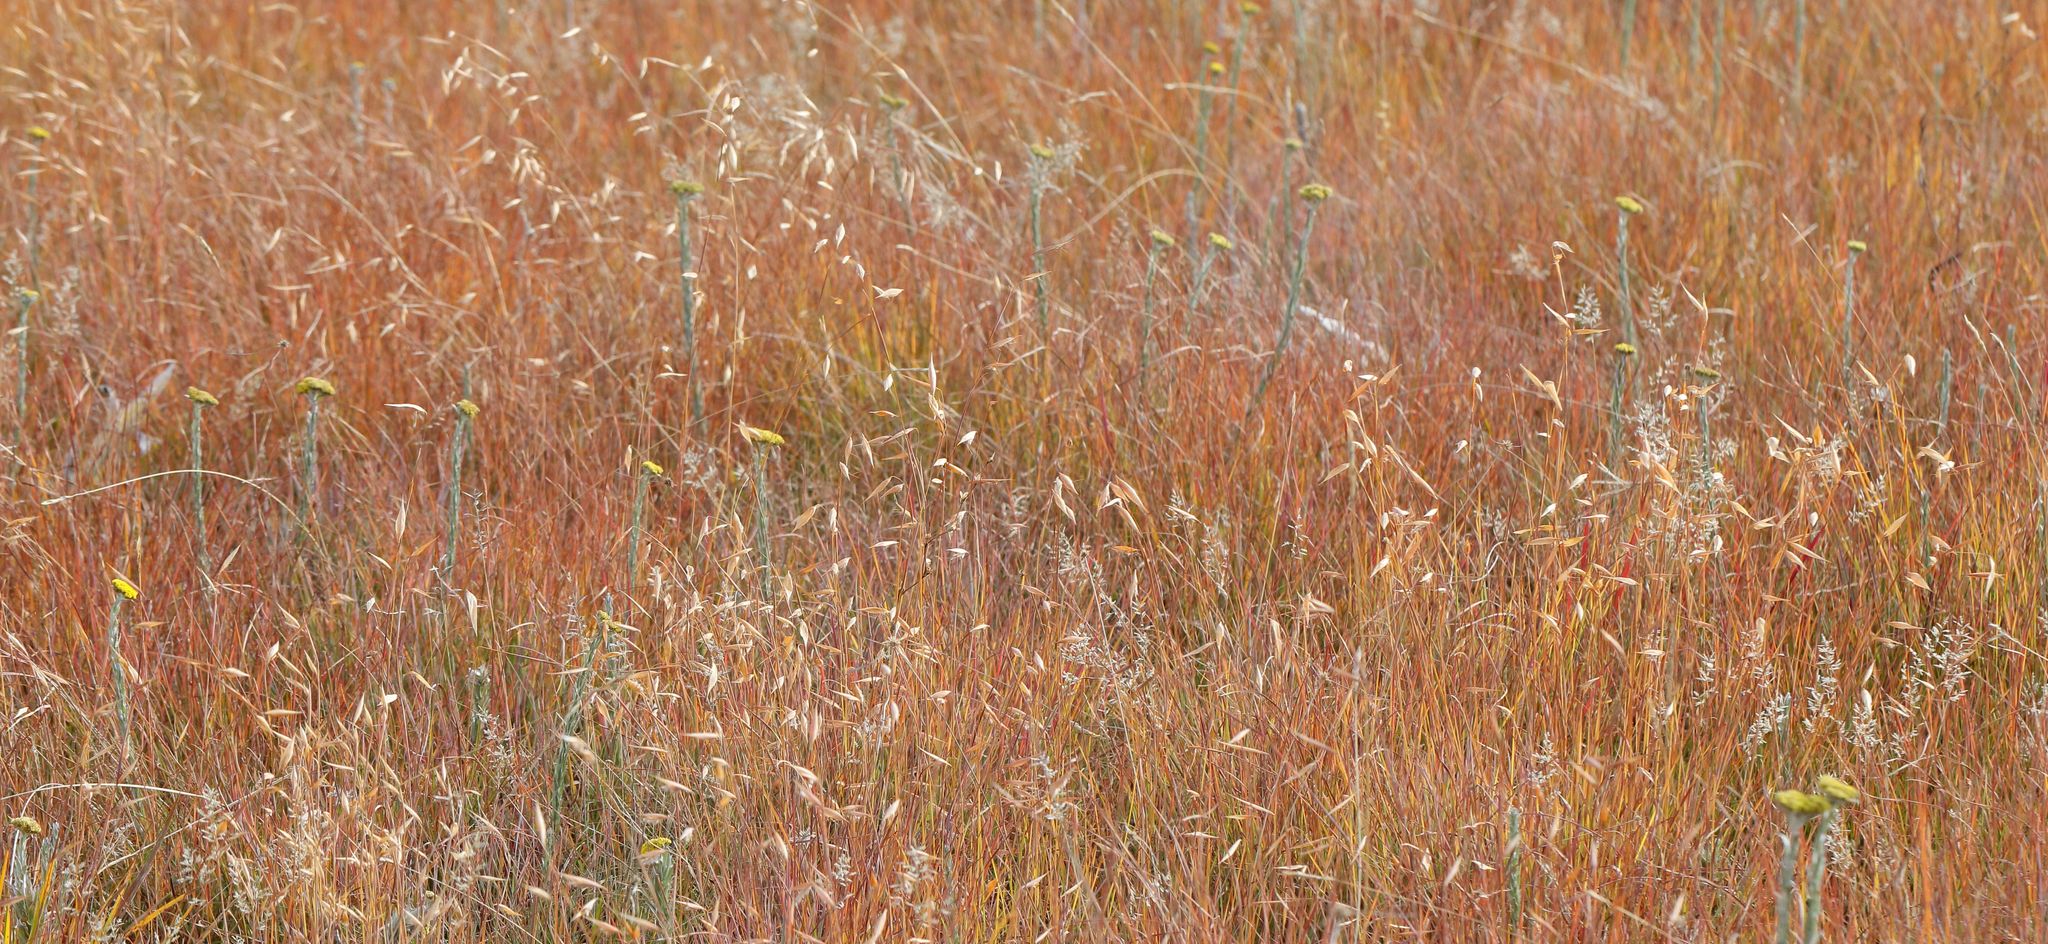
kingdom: Plantae
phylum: Tracheophyta
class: Liliopsida
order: Poales
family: Poaceae
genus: Monocymbium
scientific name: Monocymbium ceresiiforme
